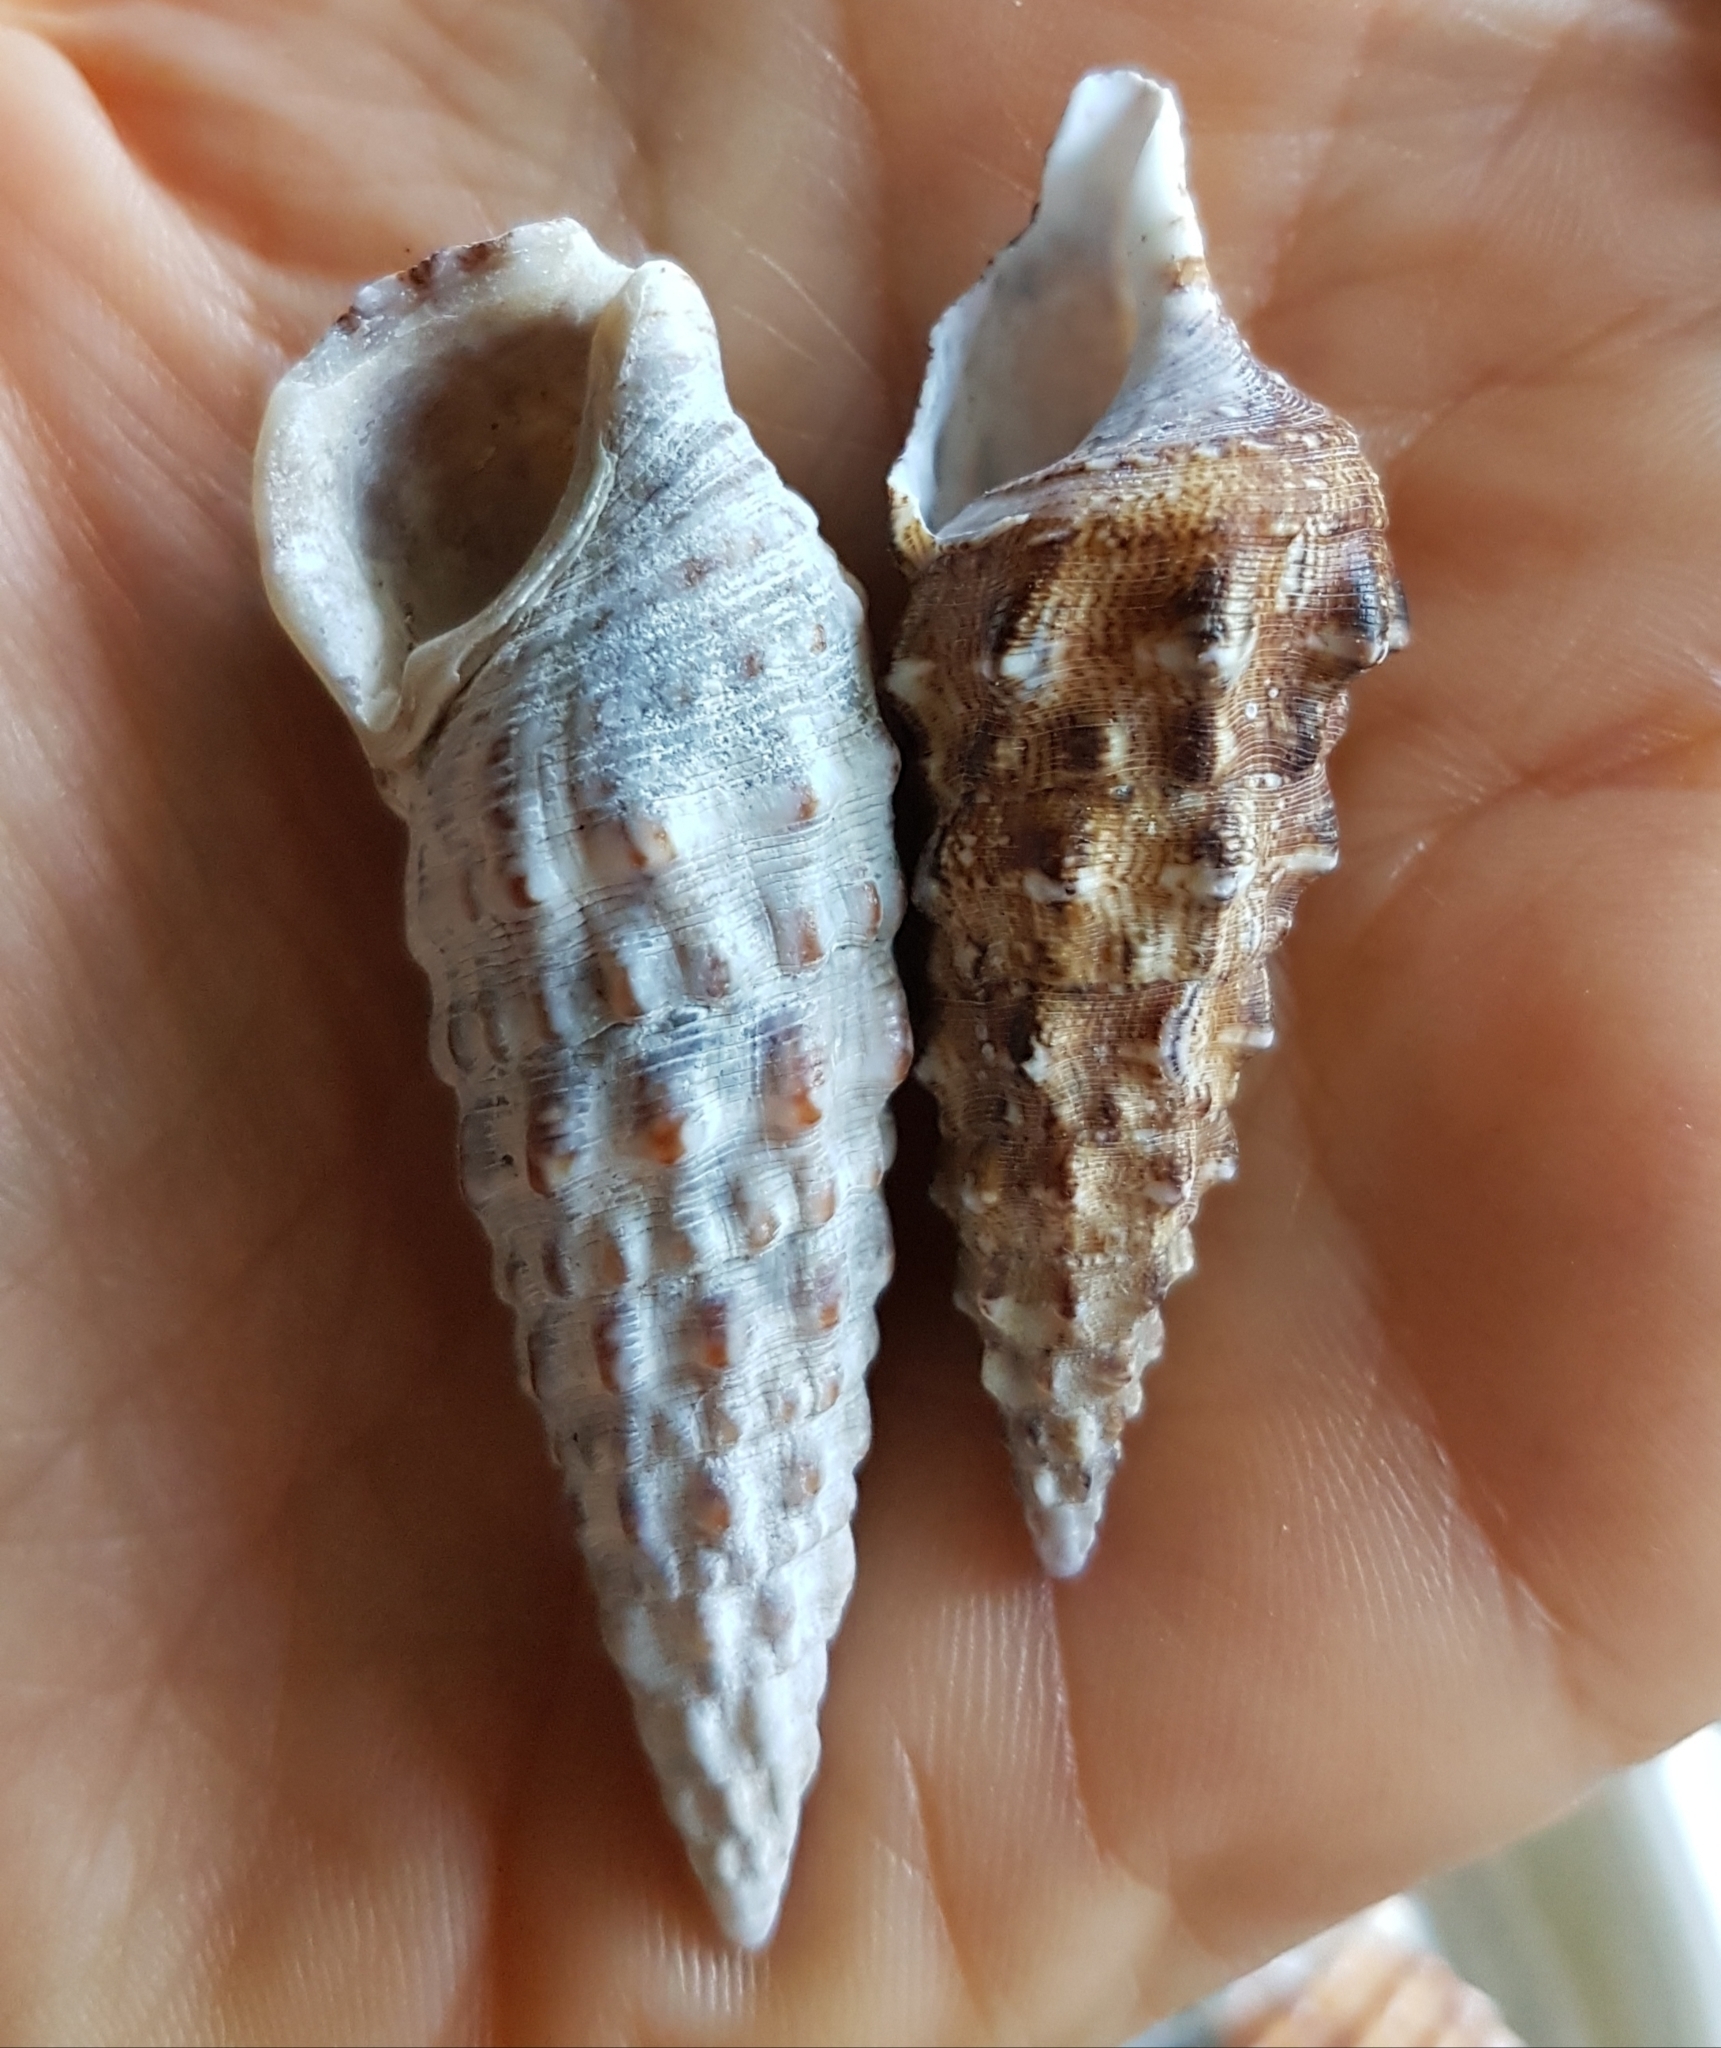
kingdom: Animalia
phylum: Mollusca
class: Gastropoda
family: Cerithiidae
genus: Cerithium
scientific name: Cerithium vulgatum
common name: European cerith
